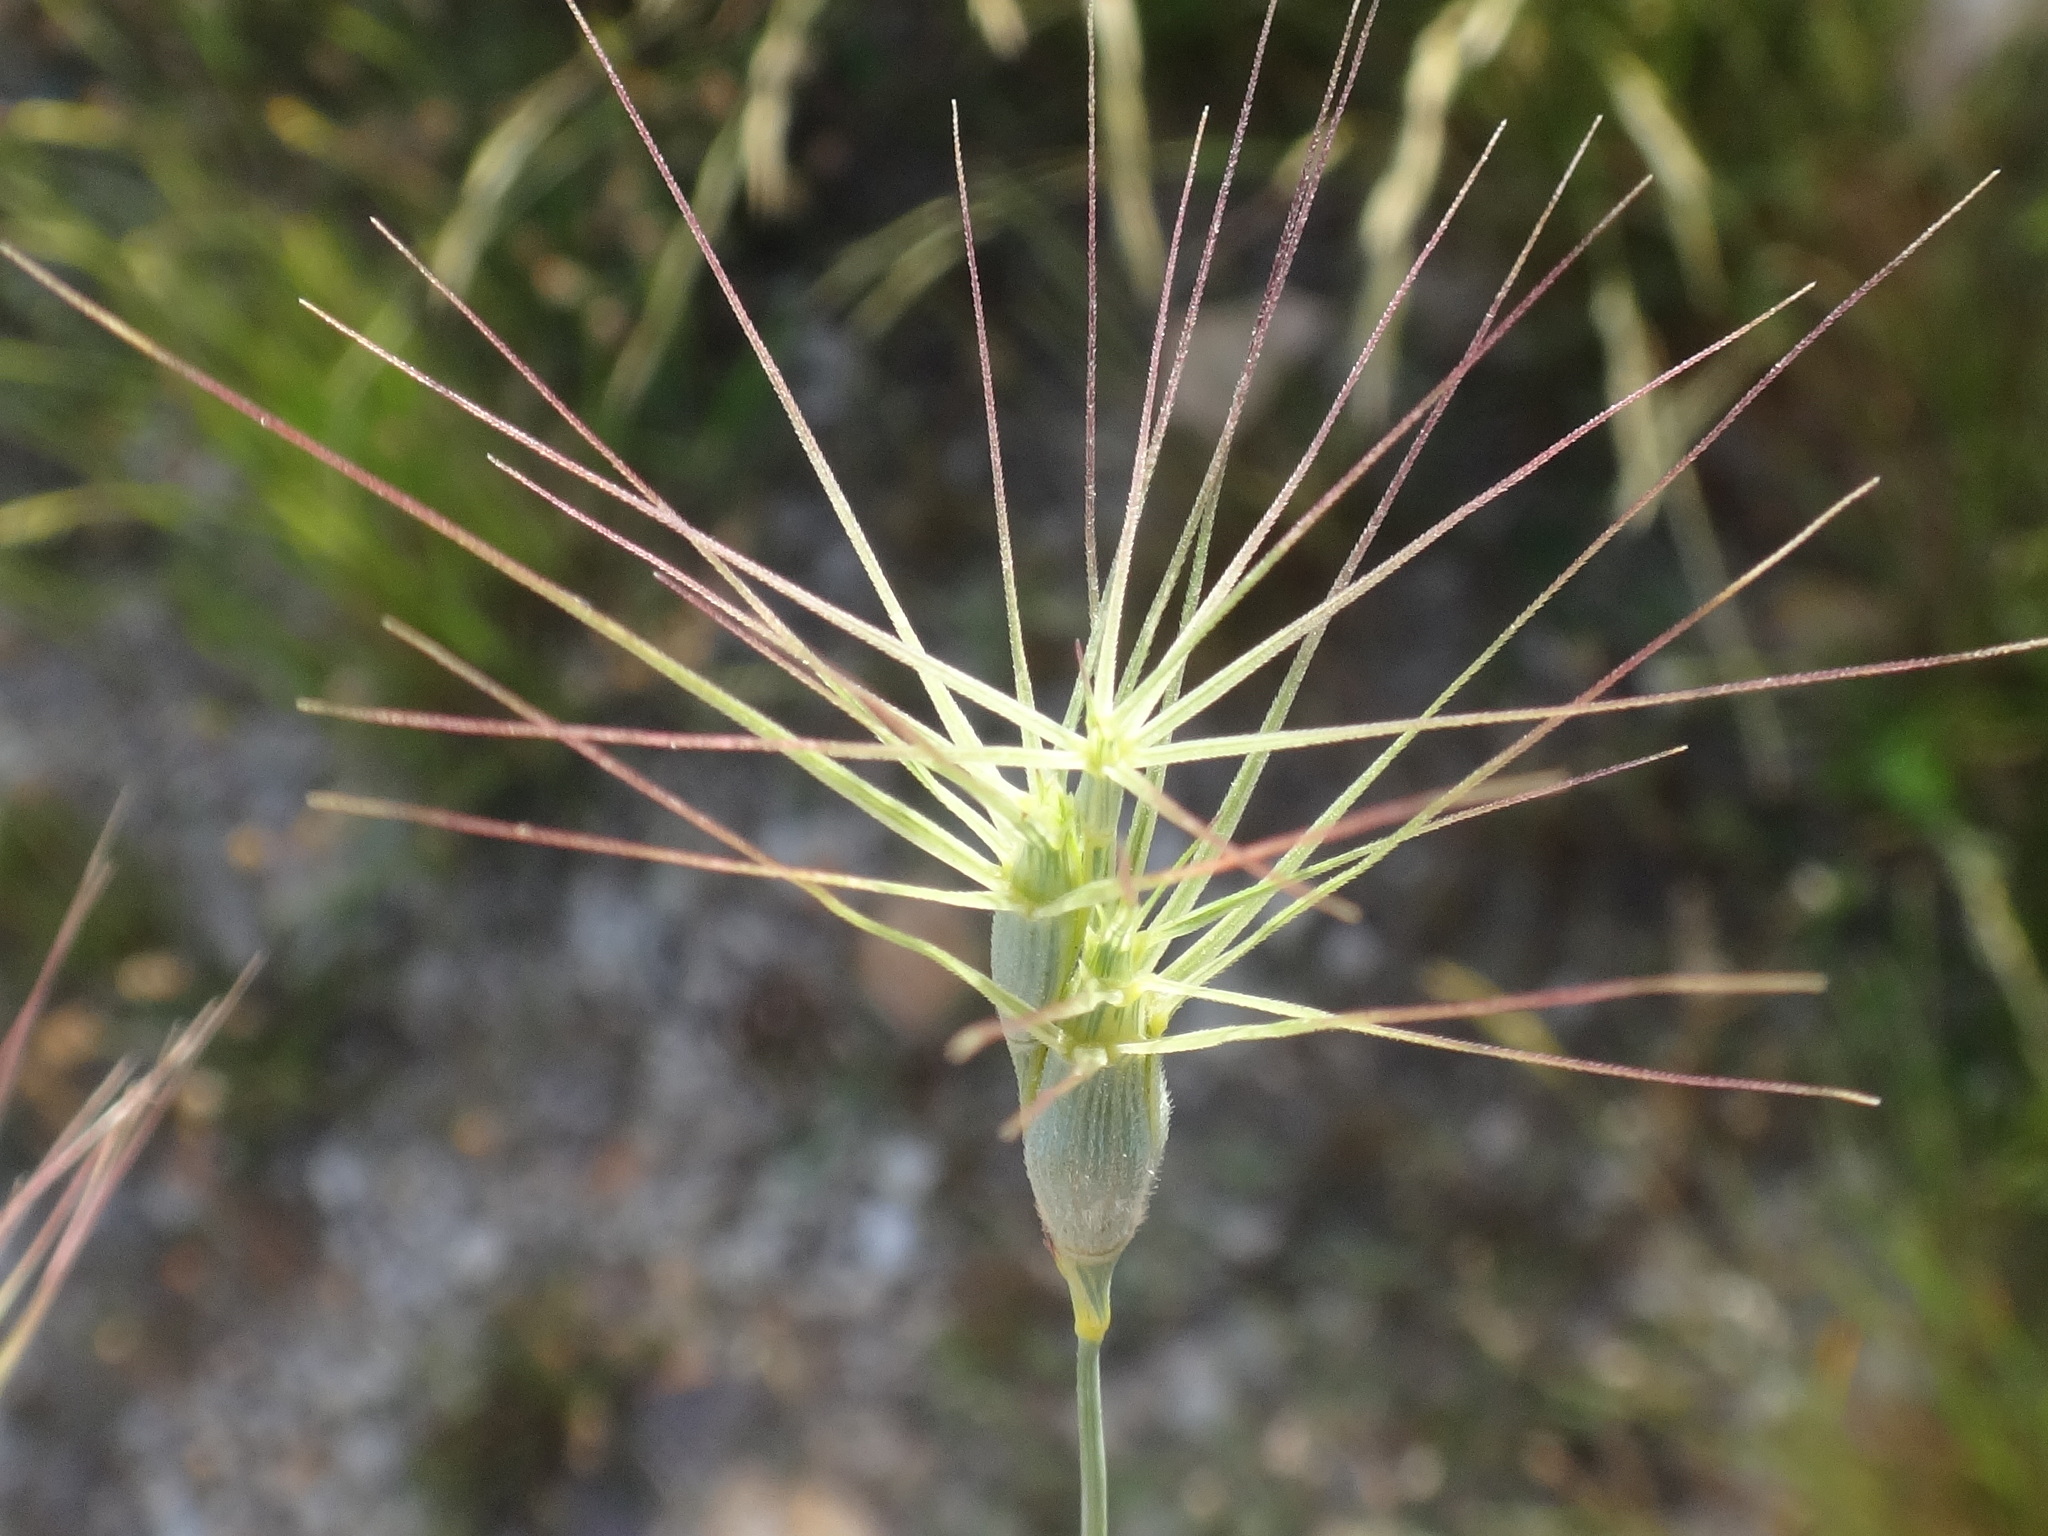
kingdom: Plantae
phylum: Tracheophyta
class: Liliopsida
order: Poales
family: Poaceae
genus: Aegilops
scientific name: Aegilops neglecta
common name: Three-awn goat grass
